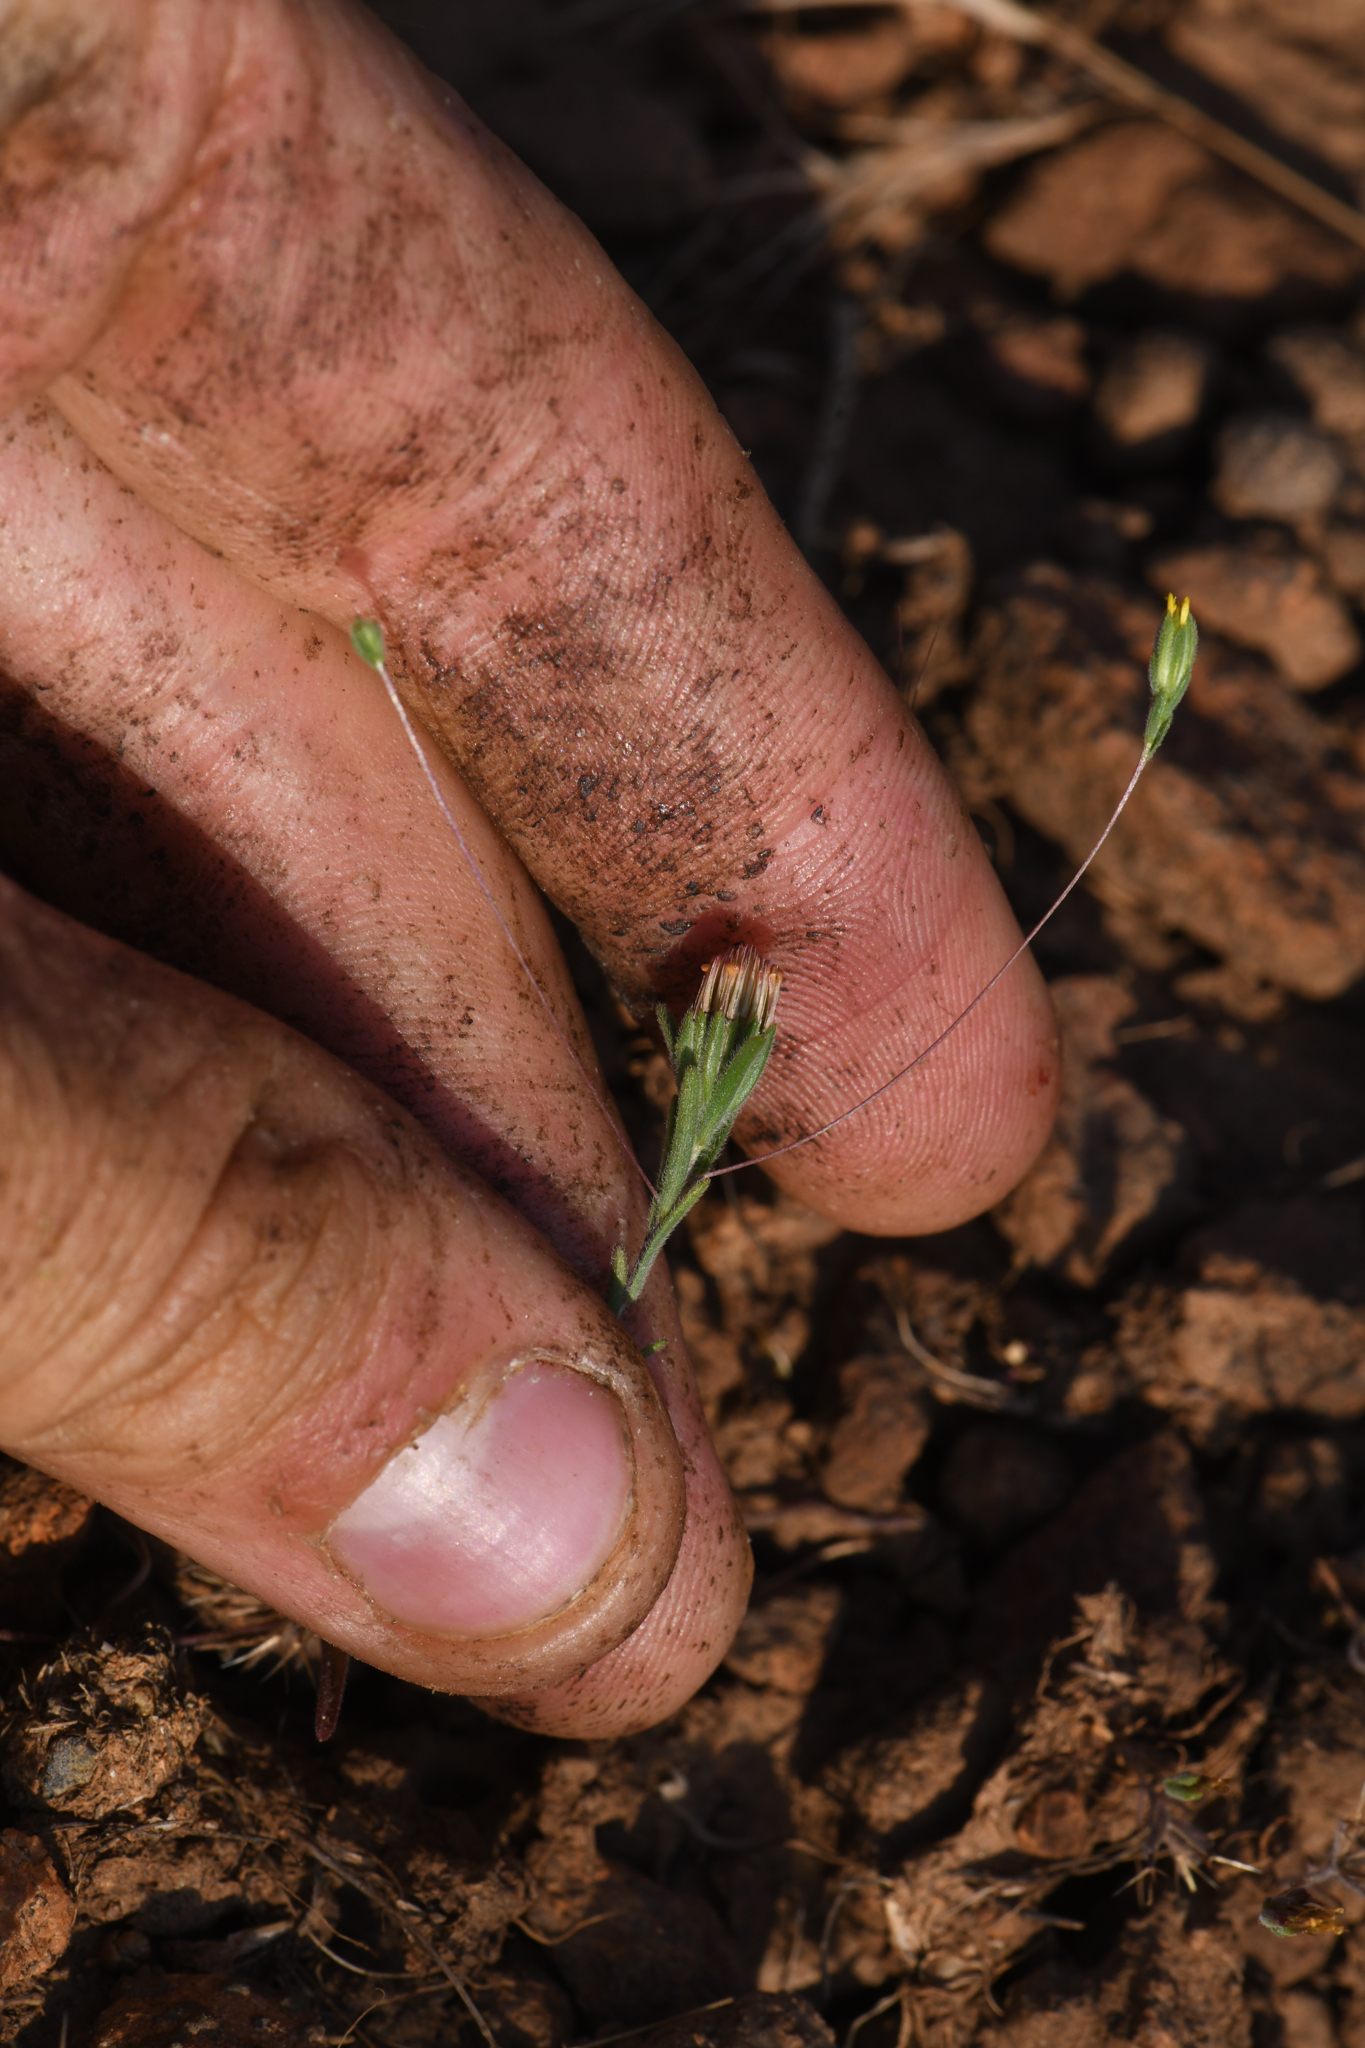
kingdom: Plantae
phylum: Tracheophyta
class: Magnoliopsida
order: Asterales
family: Asteraceae
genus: Rigiopappus
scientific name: Rigiopappus leptocladus
